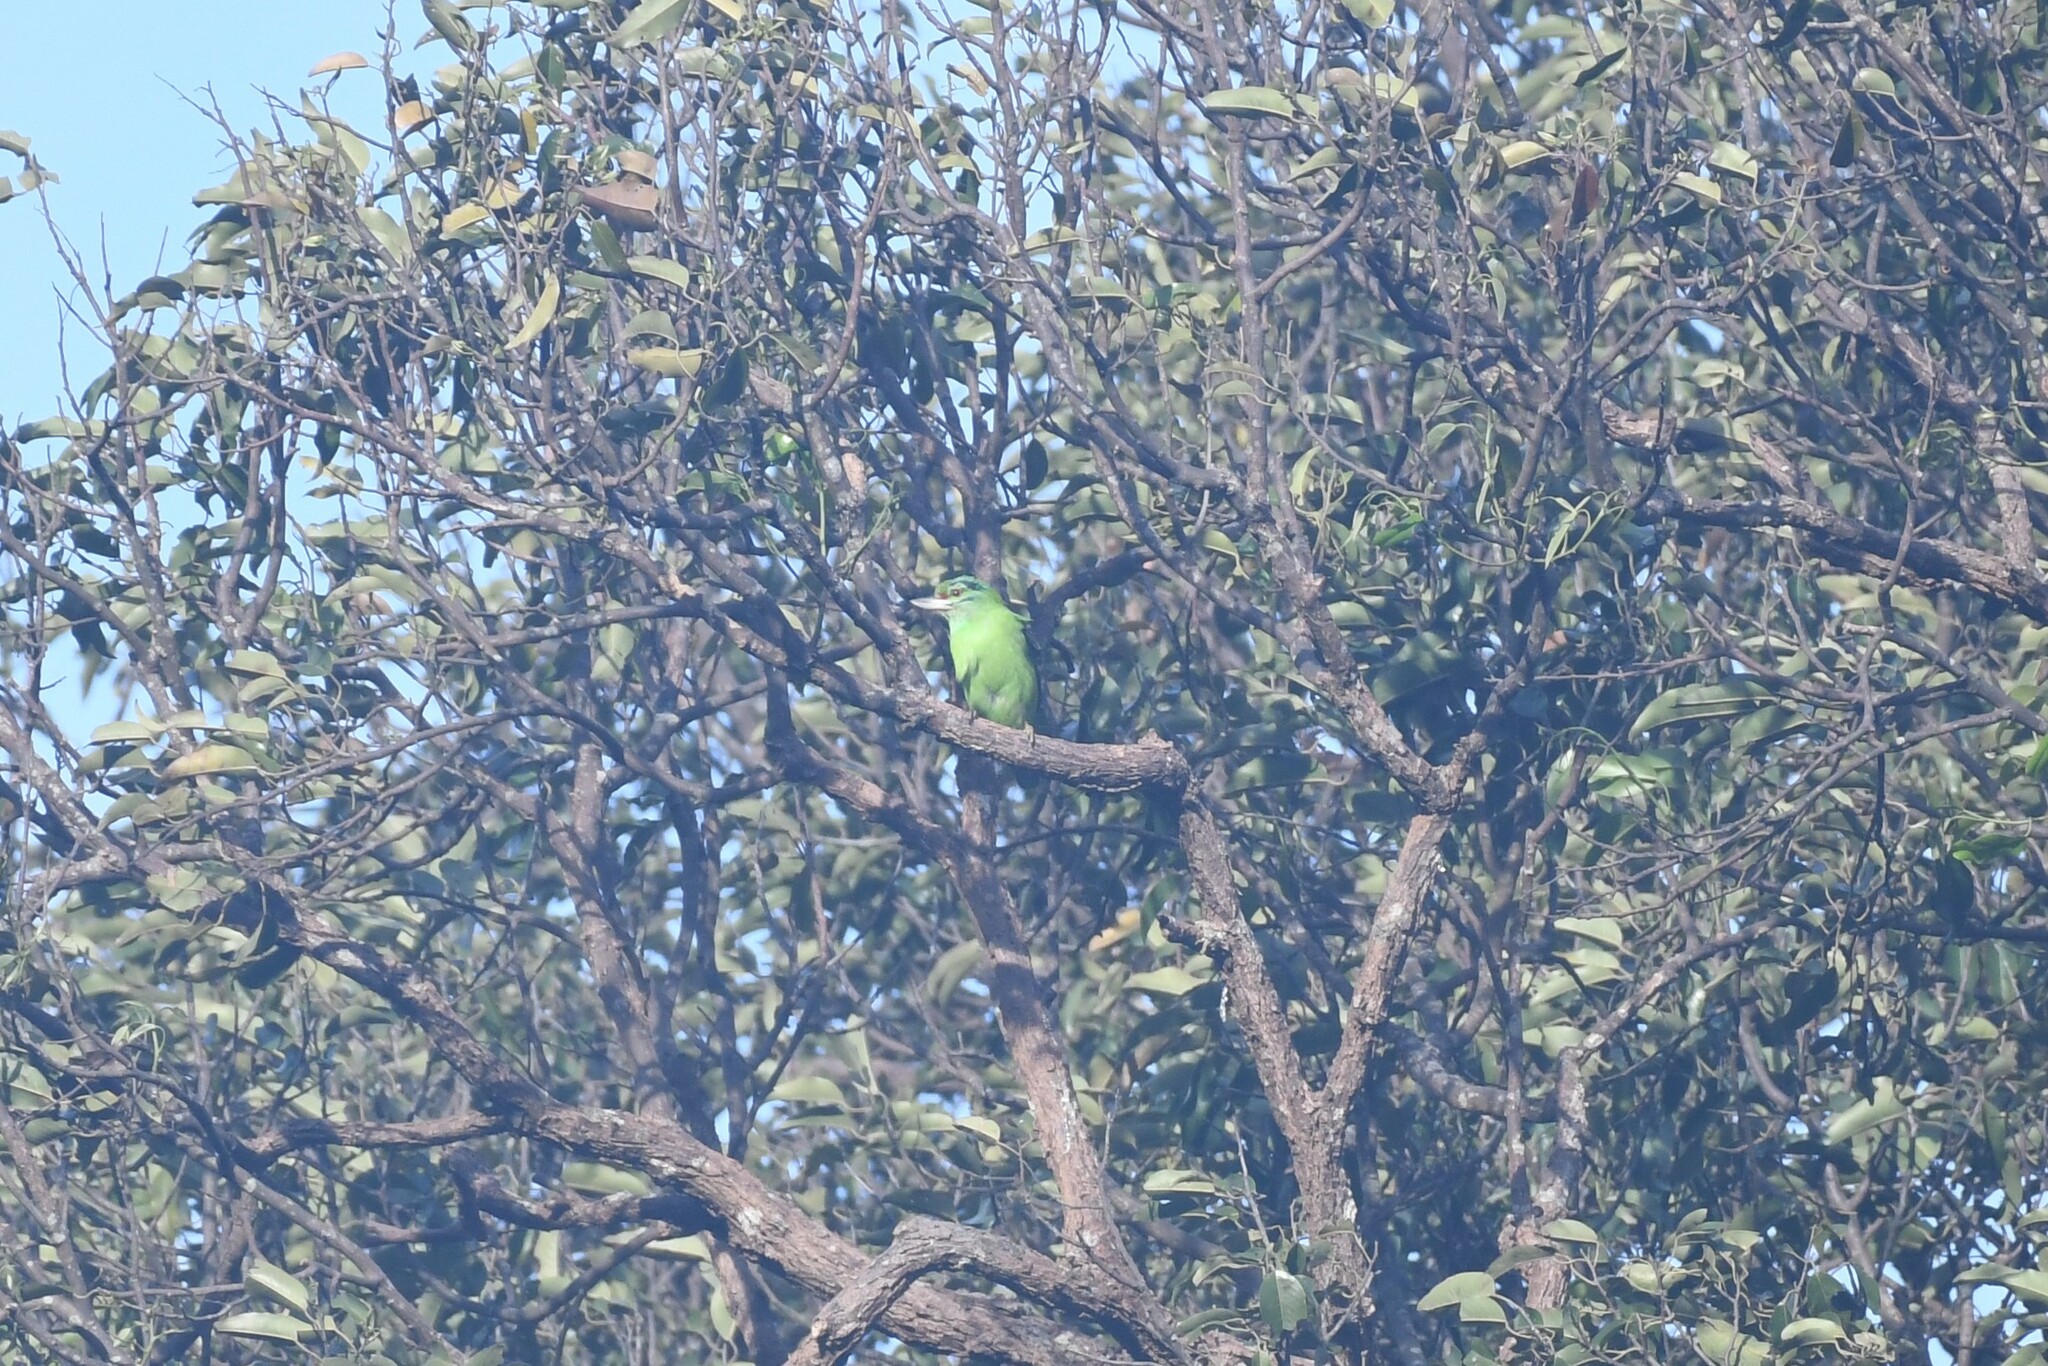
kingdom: Animalia
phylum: Chordata
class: Aves
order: Piciformes
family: Megalaimidae
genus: Psilopogon
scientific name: Psilopogon incognitus
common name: Moustached barbet
